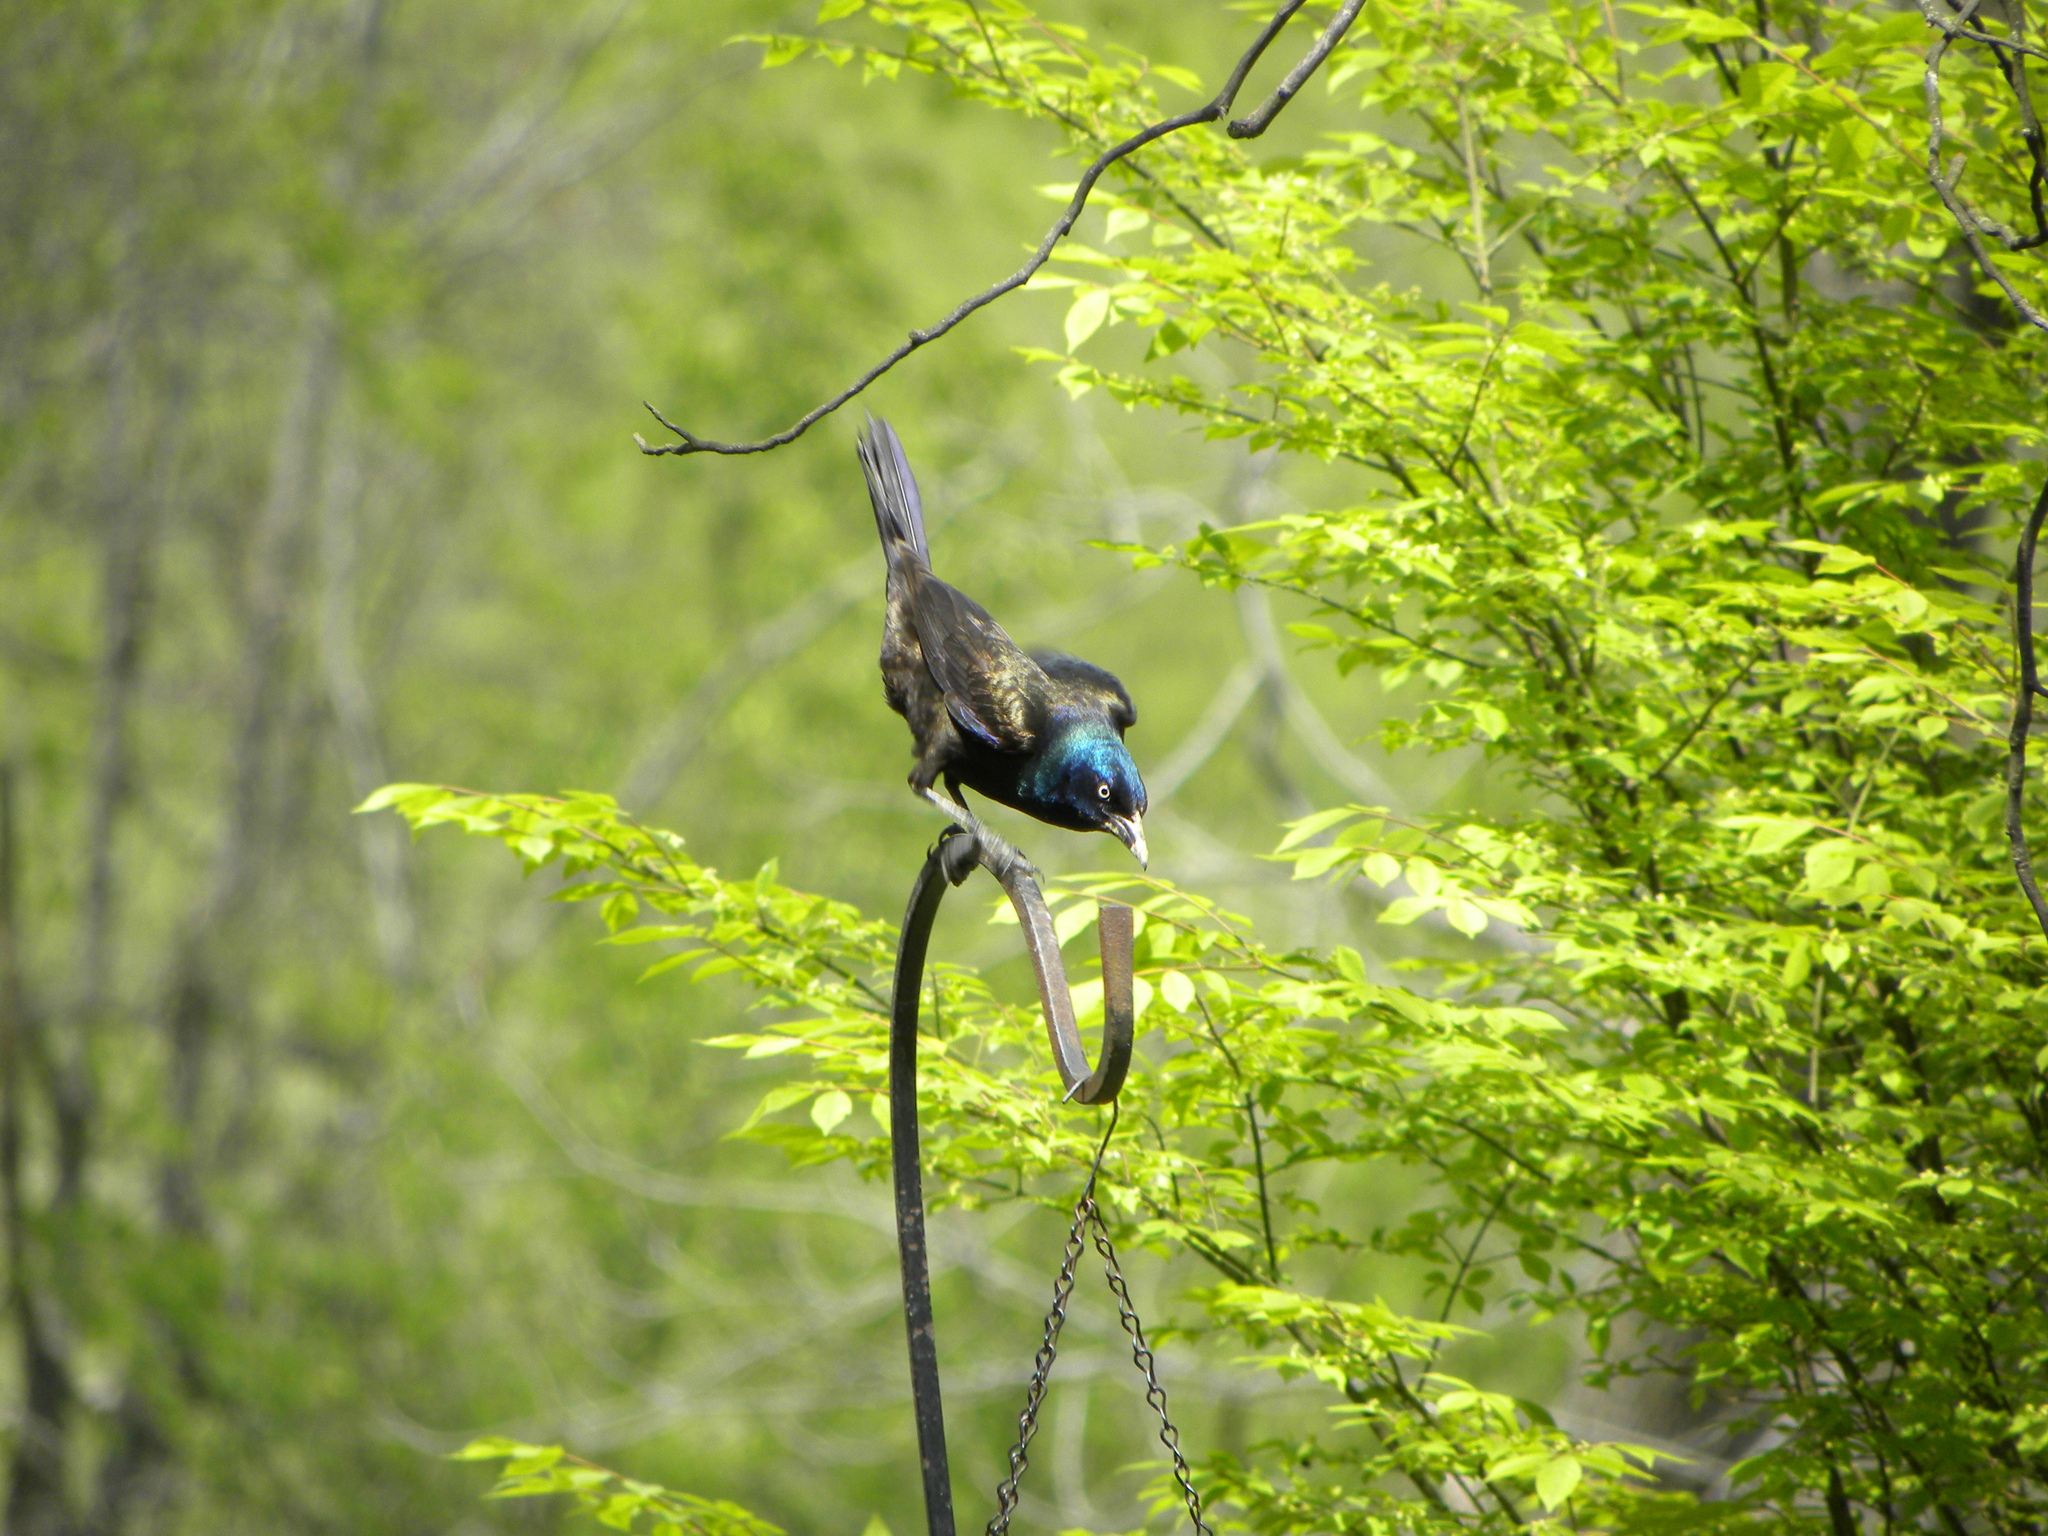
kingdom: Animalia
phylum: Chordata
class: Aves
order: Passeriformes
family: Icteridae
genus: Quiscalus
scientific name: Quiscalus quiscula
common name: Common grackle
